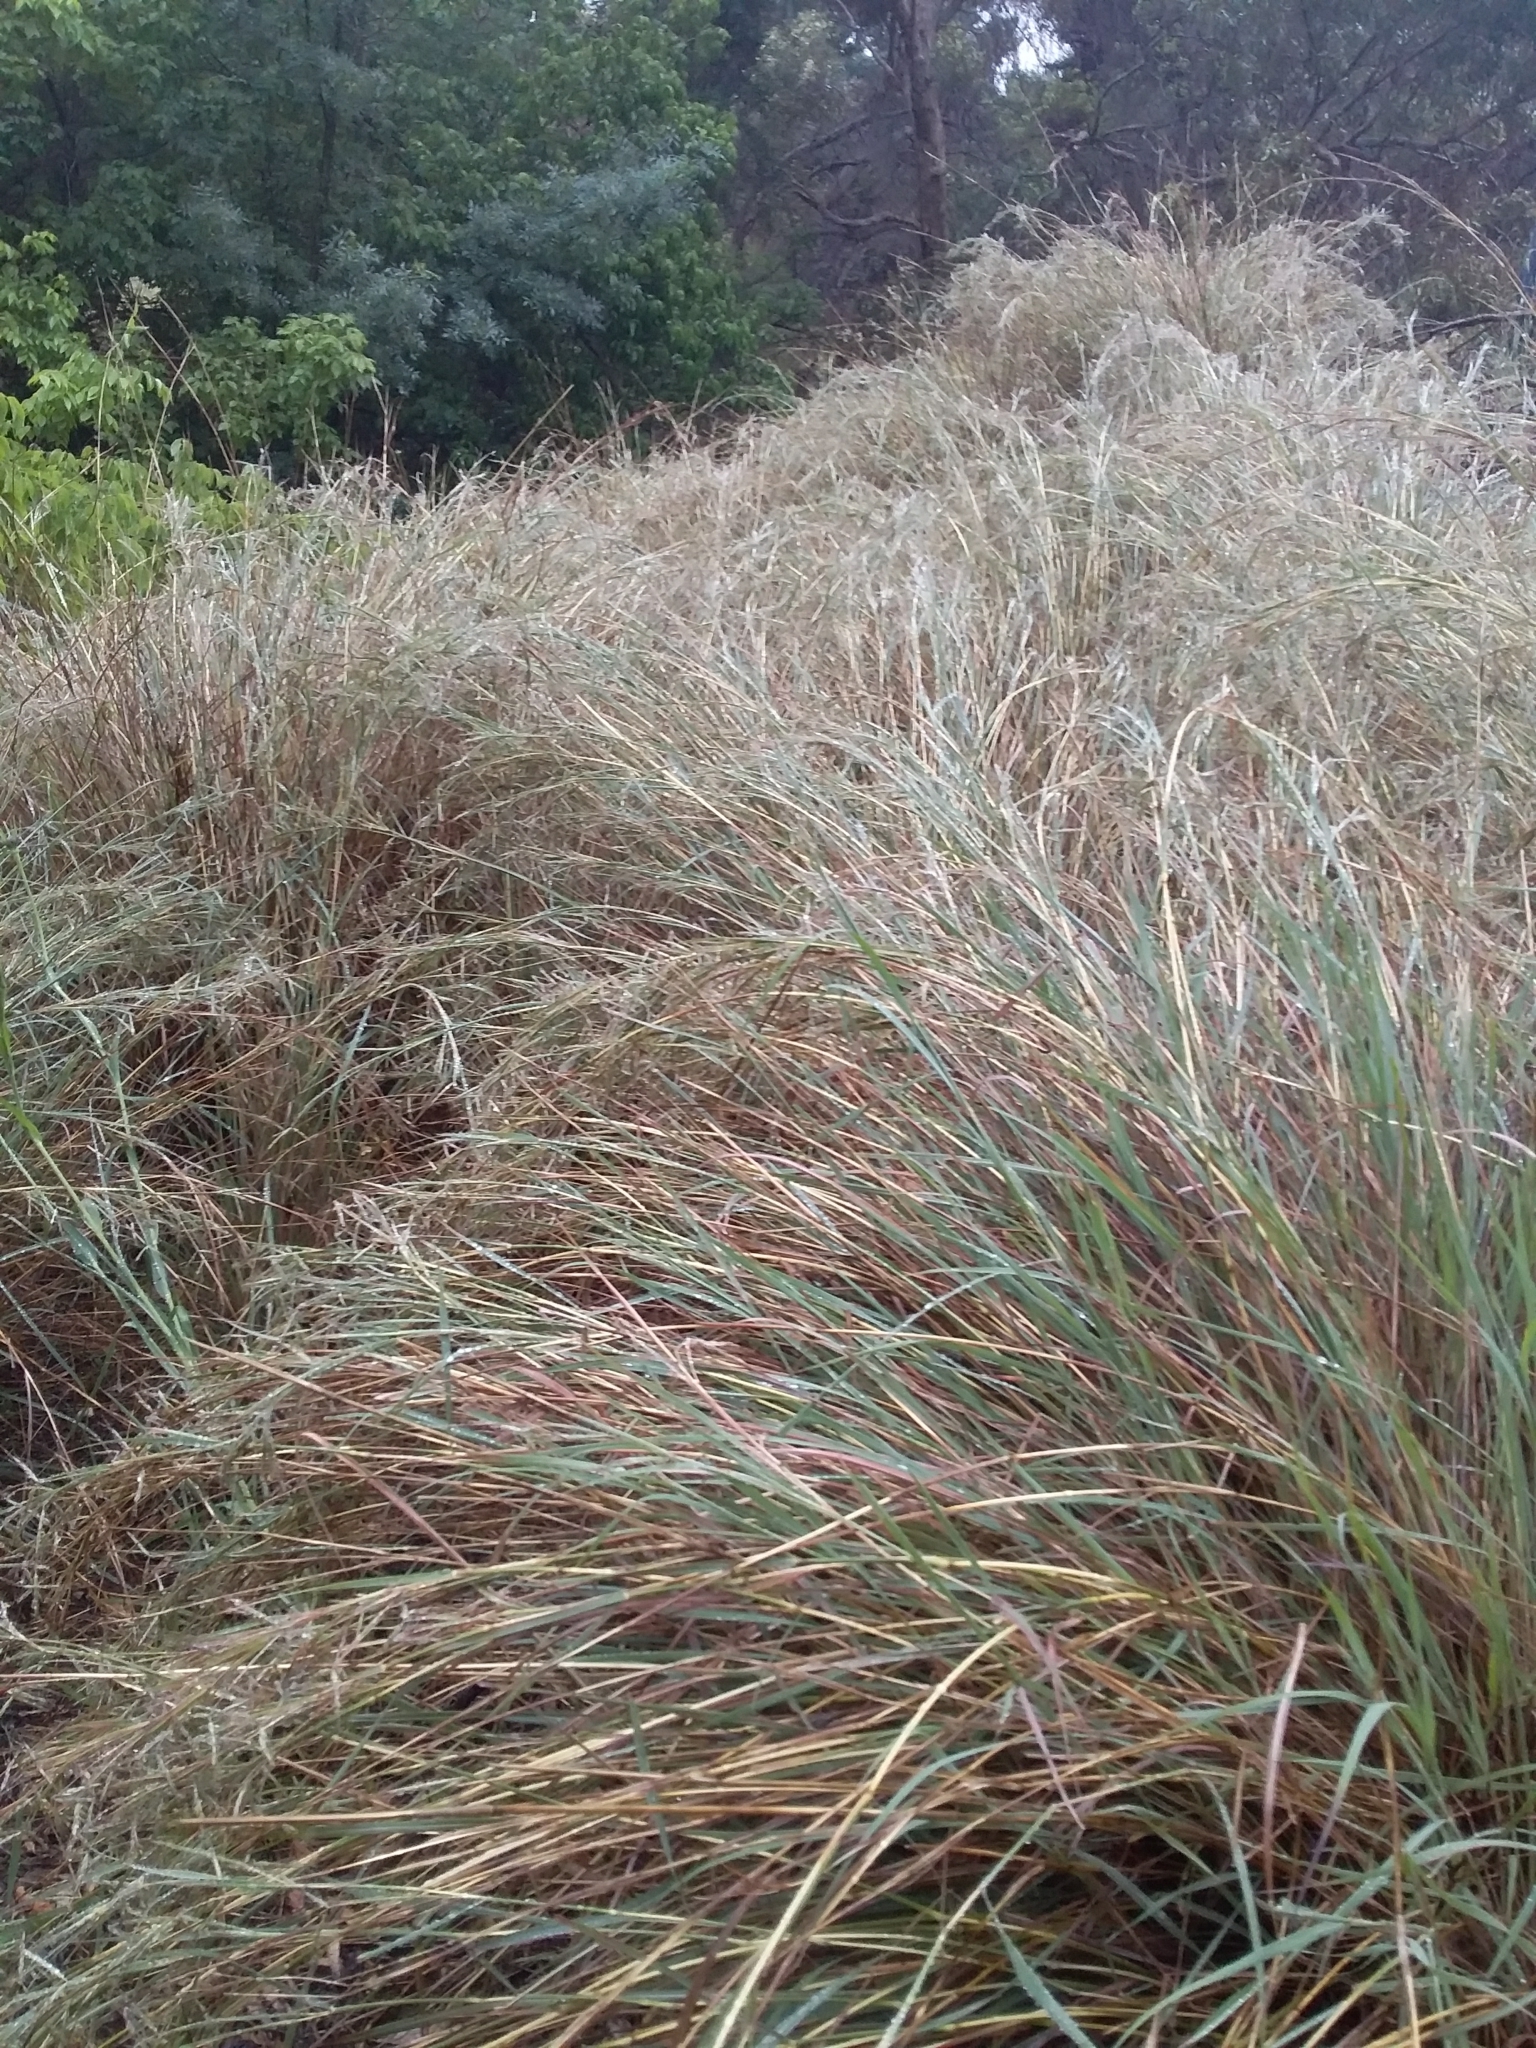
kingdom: Plantae
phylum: Tracheophyta
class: Liliopsida
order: Poales
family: Poaceae
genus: Hyparrhenia
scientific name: Hyparrhenia hirta
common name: Thatching grass
